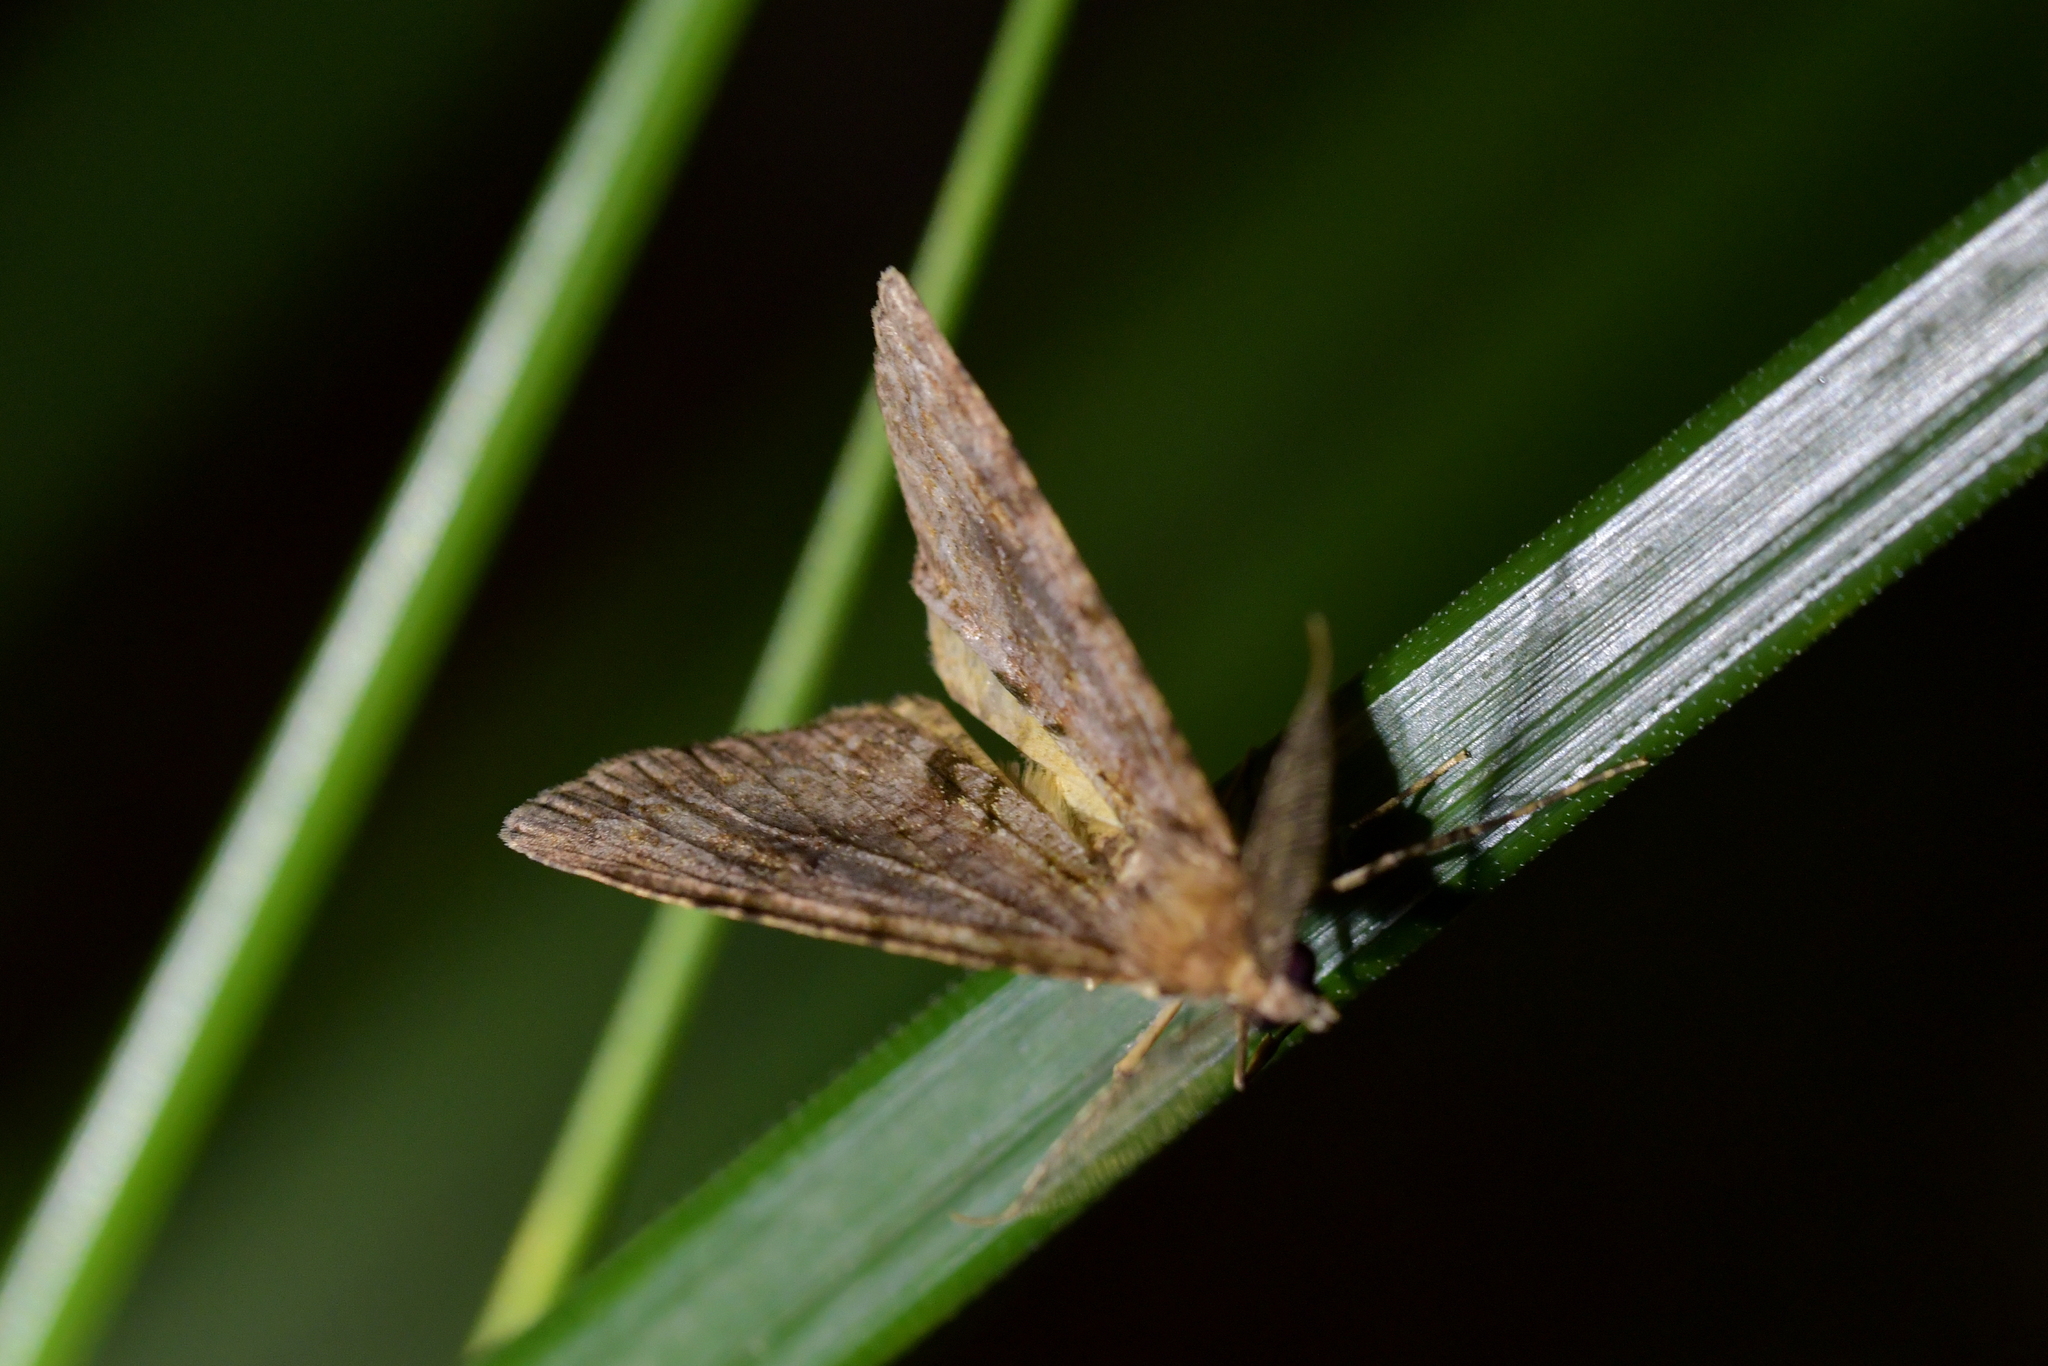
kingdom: Animalia
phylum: Arthropoda
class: Insecta
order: Lepidoptera
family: Geometridae
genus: Pseudocoremia
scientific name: Pseudocoremia suavis
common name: Common forest looper
